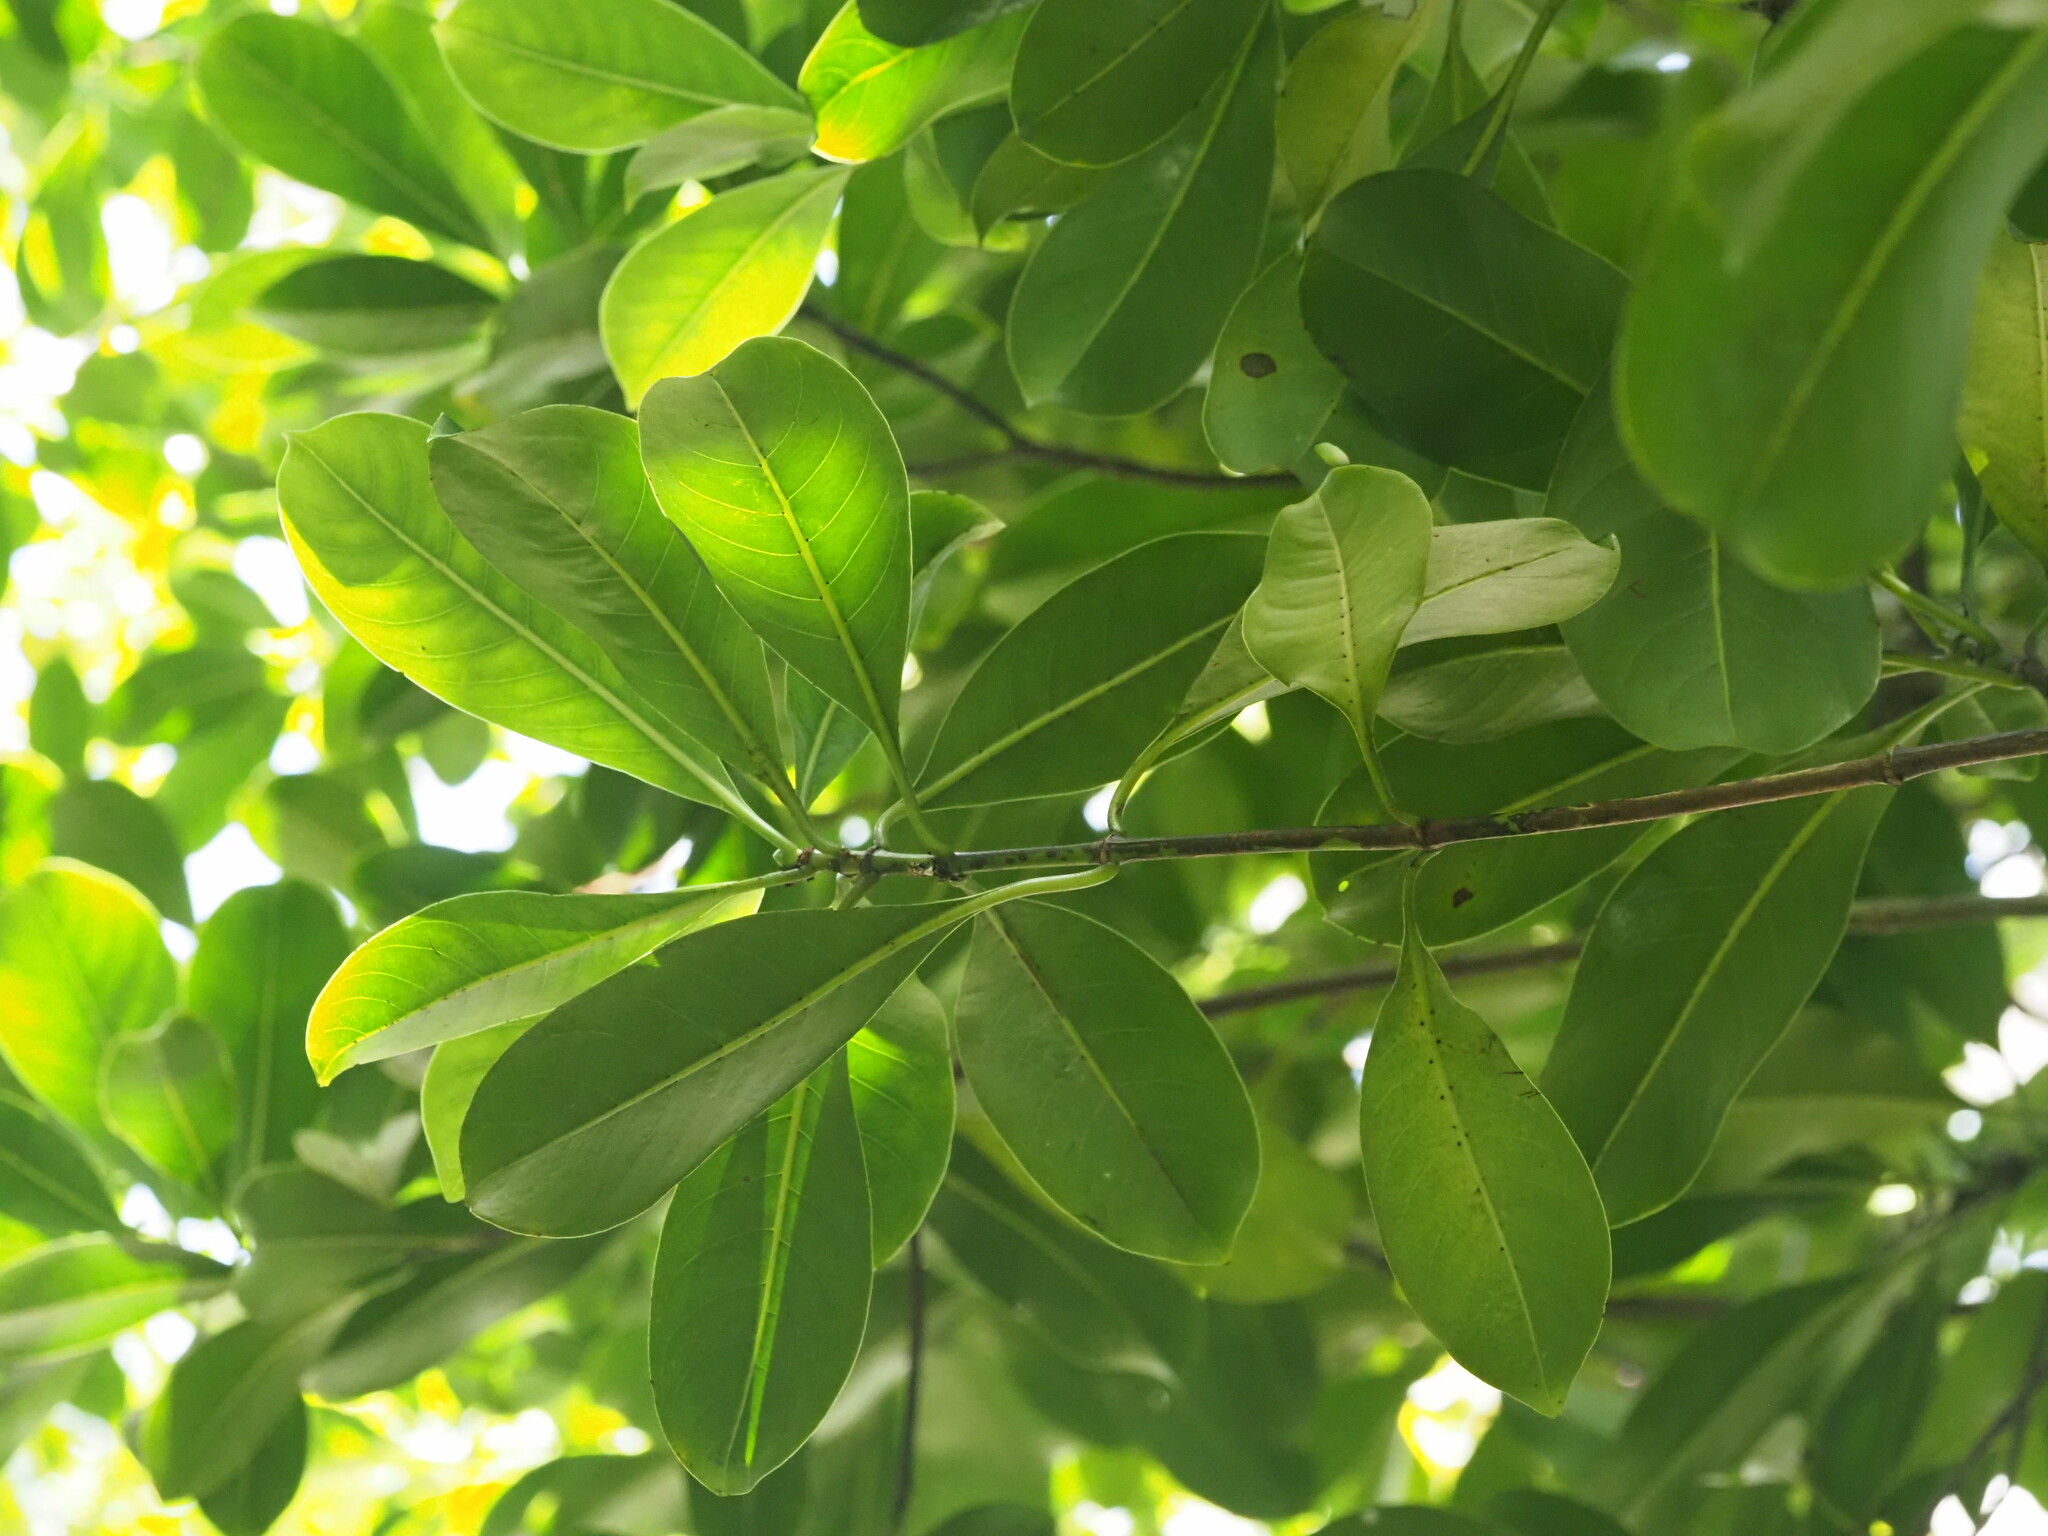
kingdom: Plantae
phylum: Tracheophyta
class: Magnoliopsida
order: Gentianales
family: Rubiaceae
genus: Psychotria
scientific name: Psychotria mariniana
